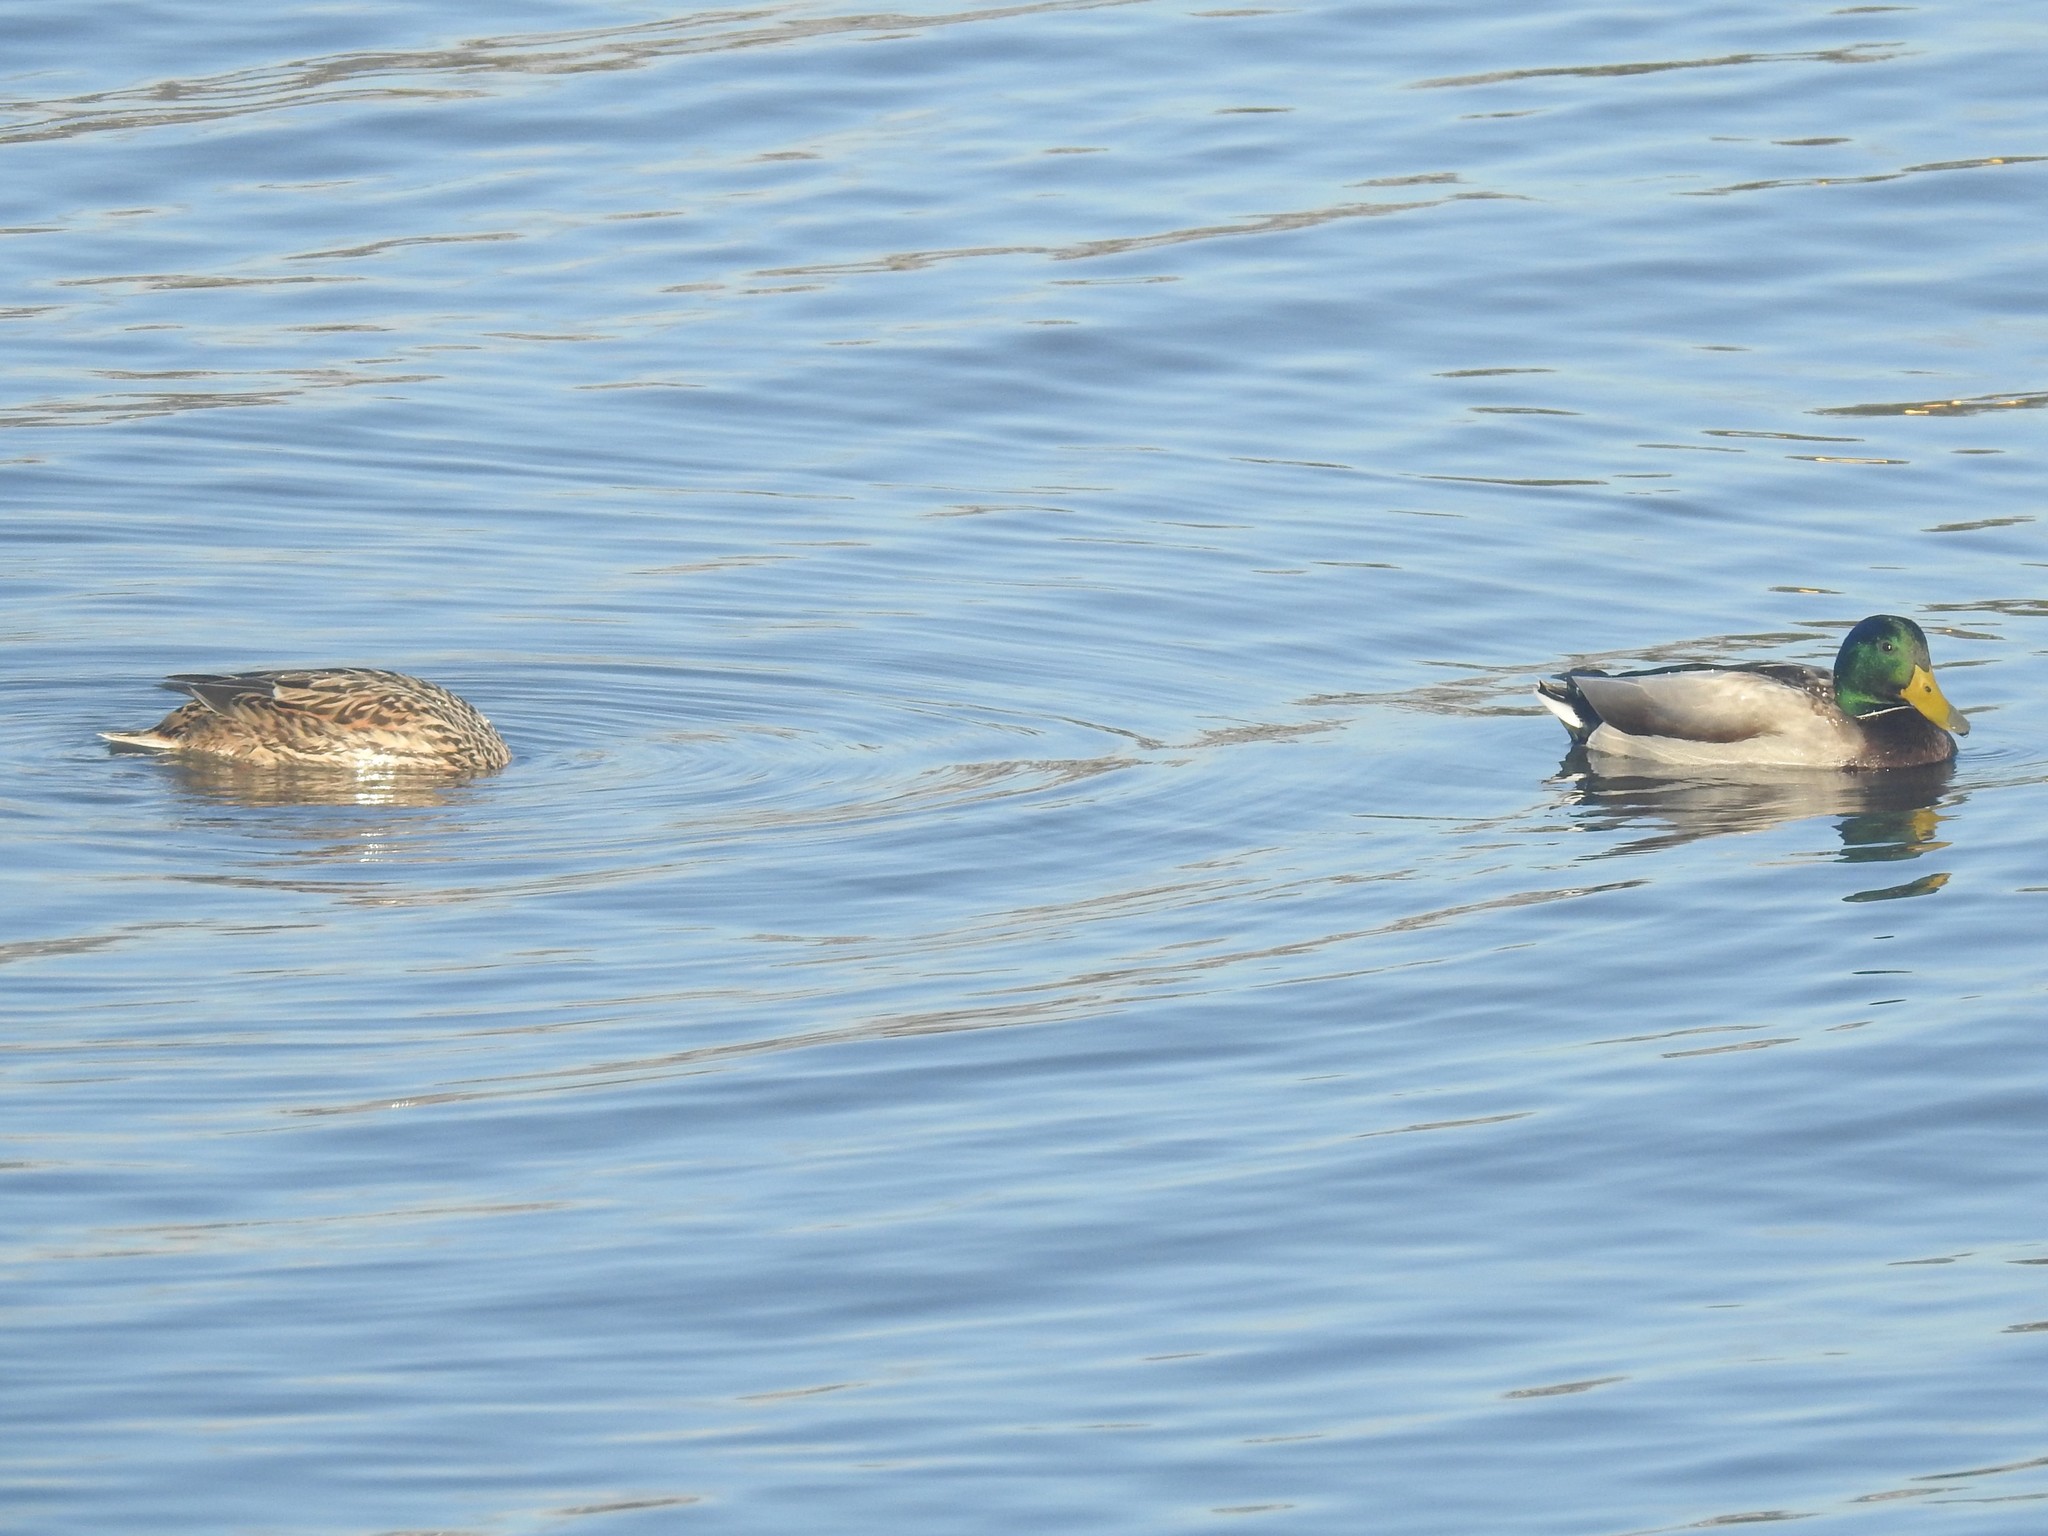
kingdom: Animalia
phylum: Chordata
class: Aves
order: Anseriformes
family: Anatidae
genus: Anas
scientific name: Anas platyrhynchos
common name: Mallard
